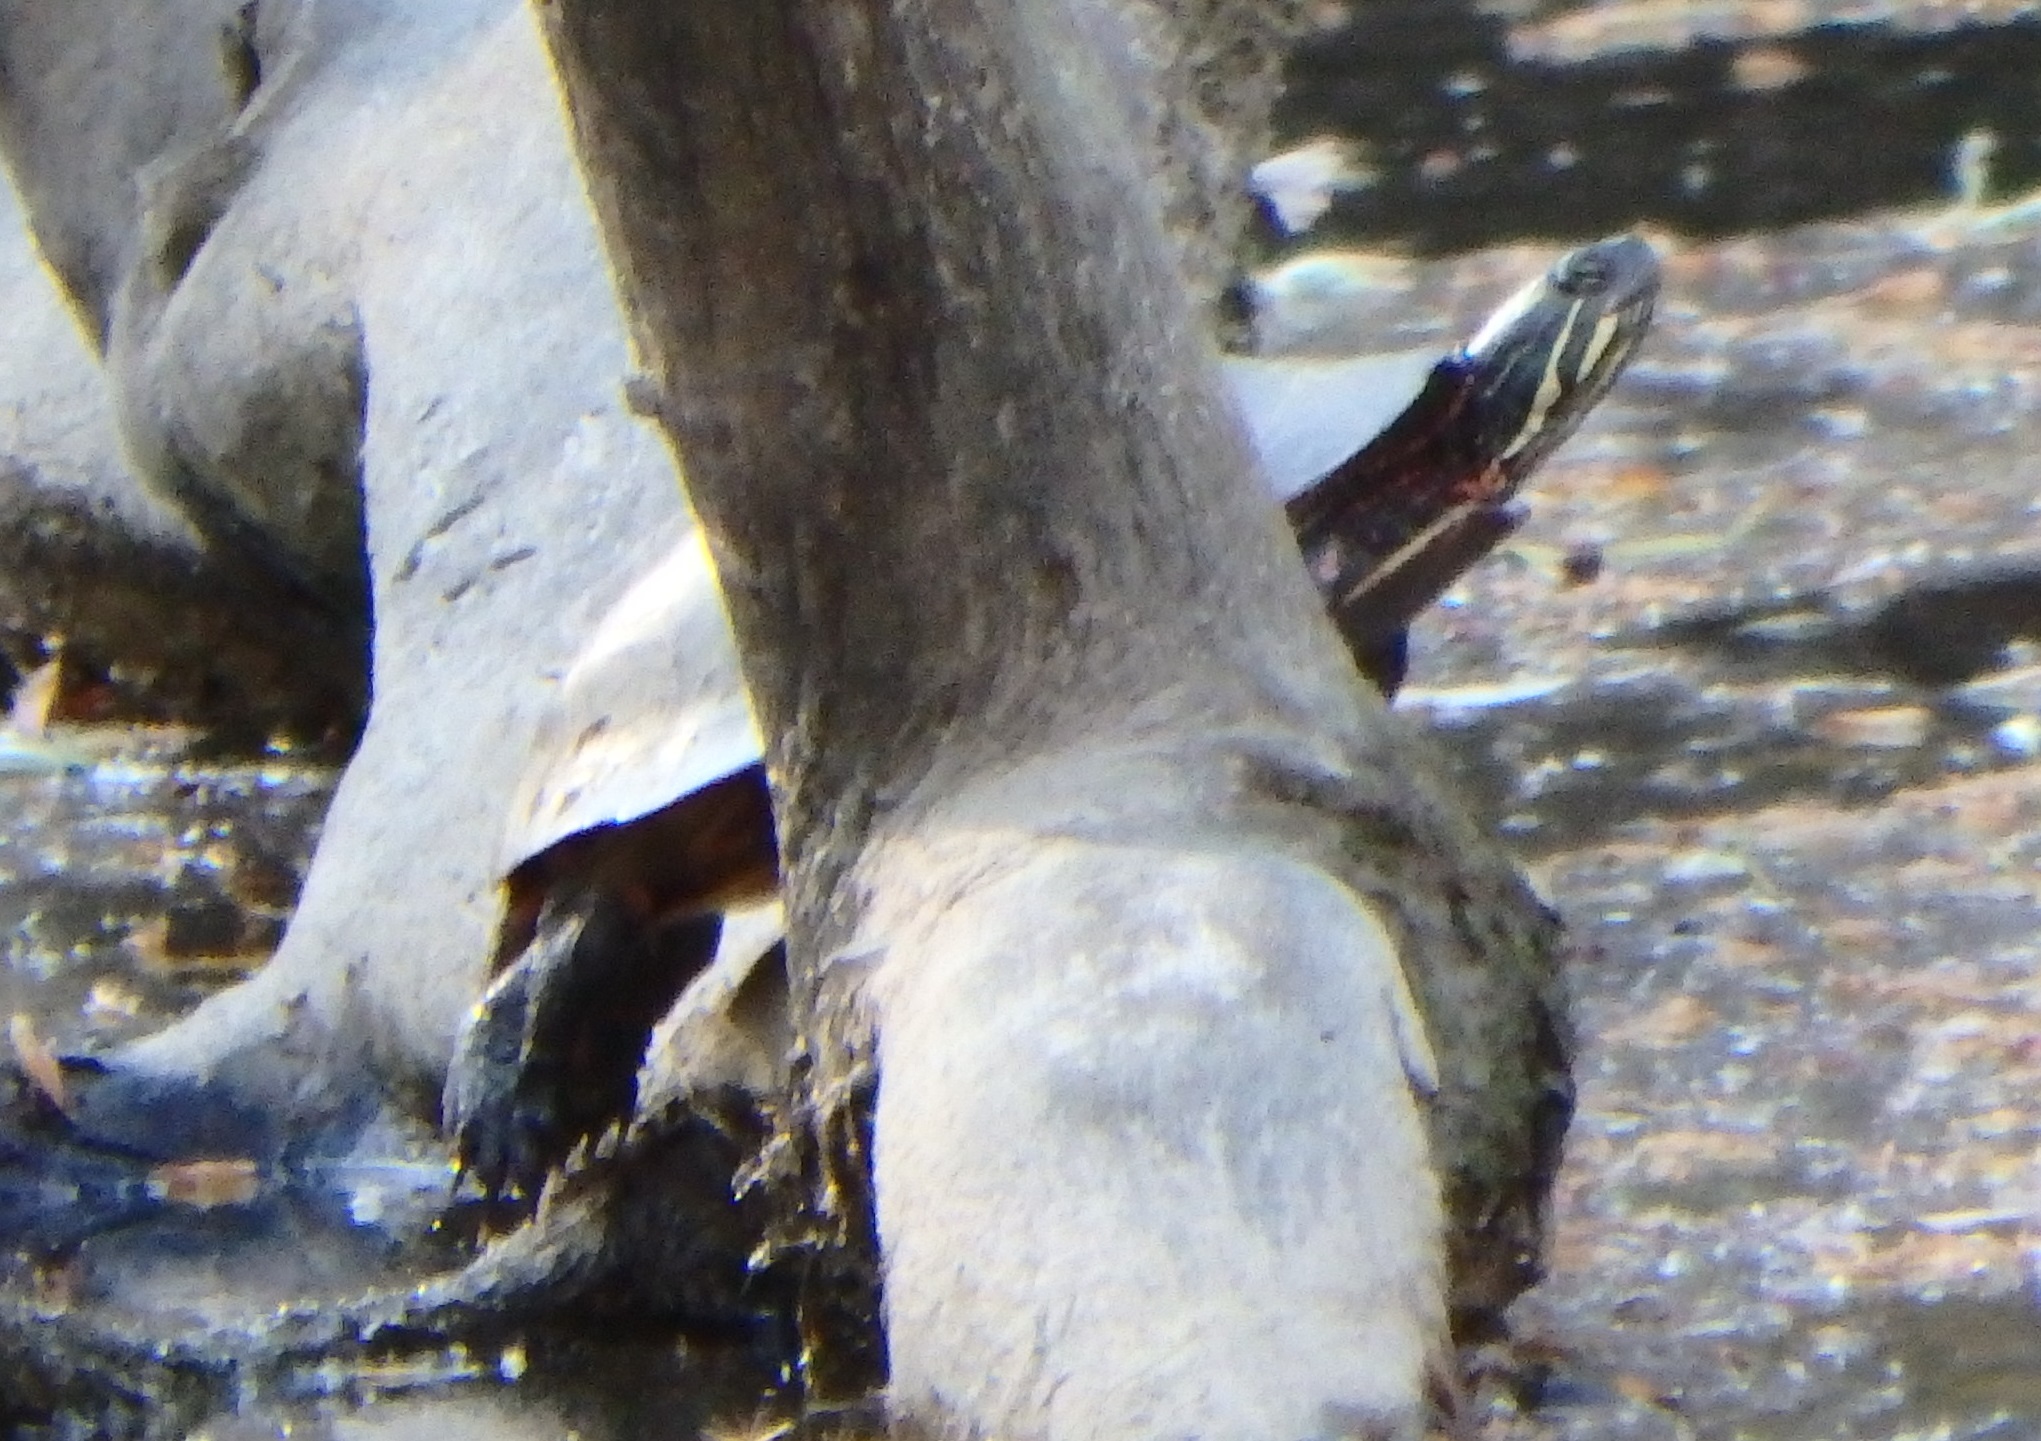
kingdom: Animalia
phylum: Chordata
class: Testudines
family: Emydidae
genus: Chrysemys
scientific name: Chrysemys picta
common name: Painted turtle
